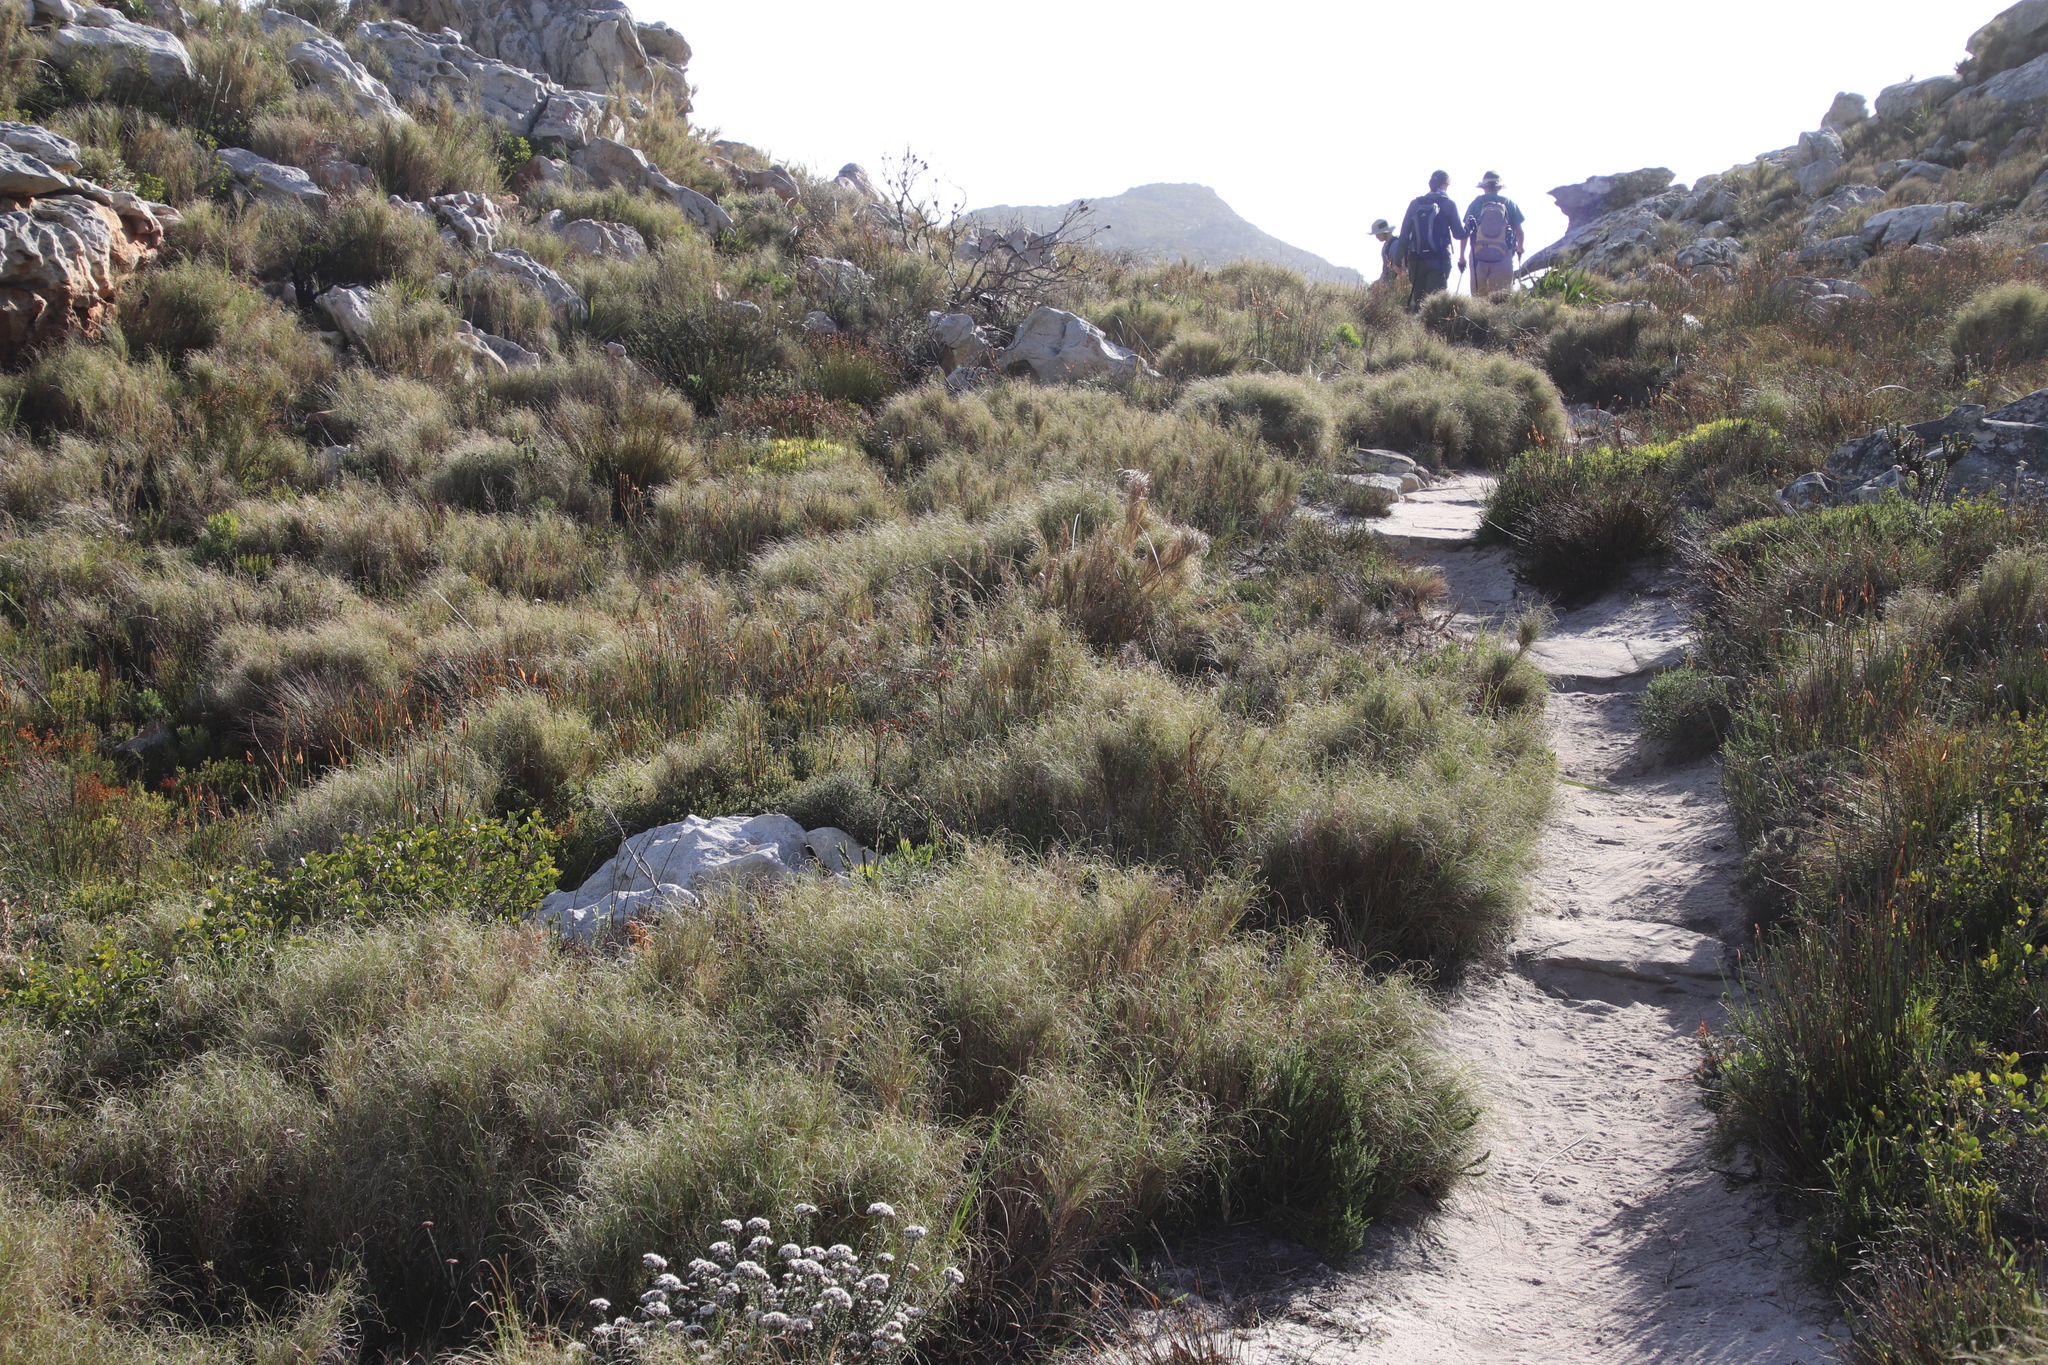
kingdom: Plantae
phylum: Tracheophyta
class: Liliopsida
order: Poales
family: Poaceae
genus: Pseudopentameris
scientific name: Pseudopentameris macrantha
